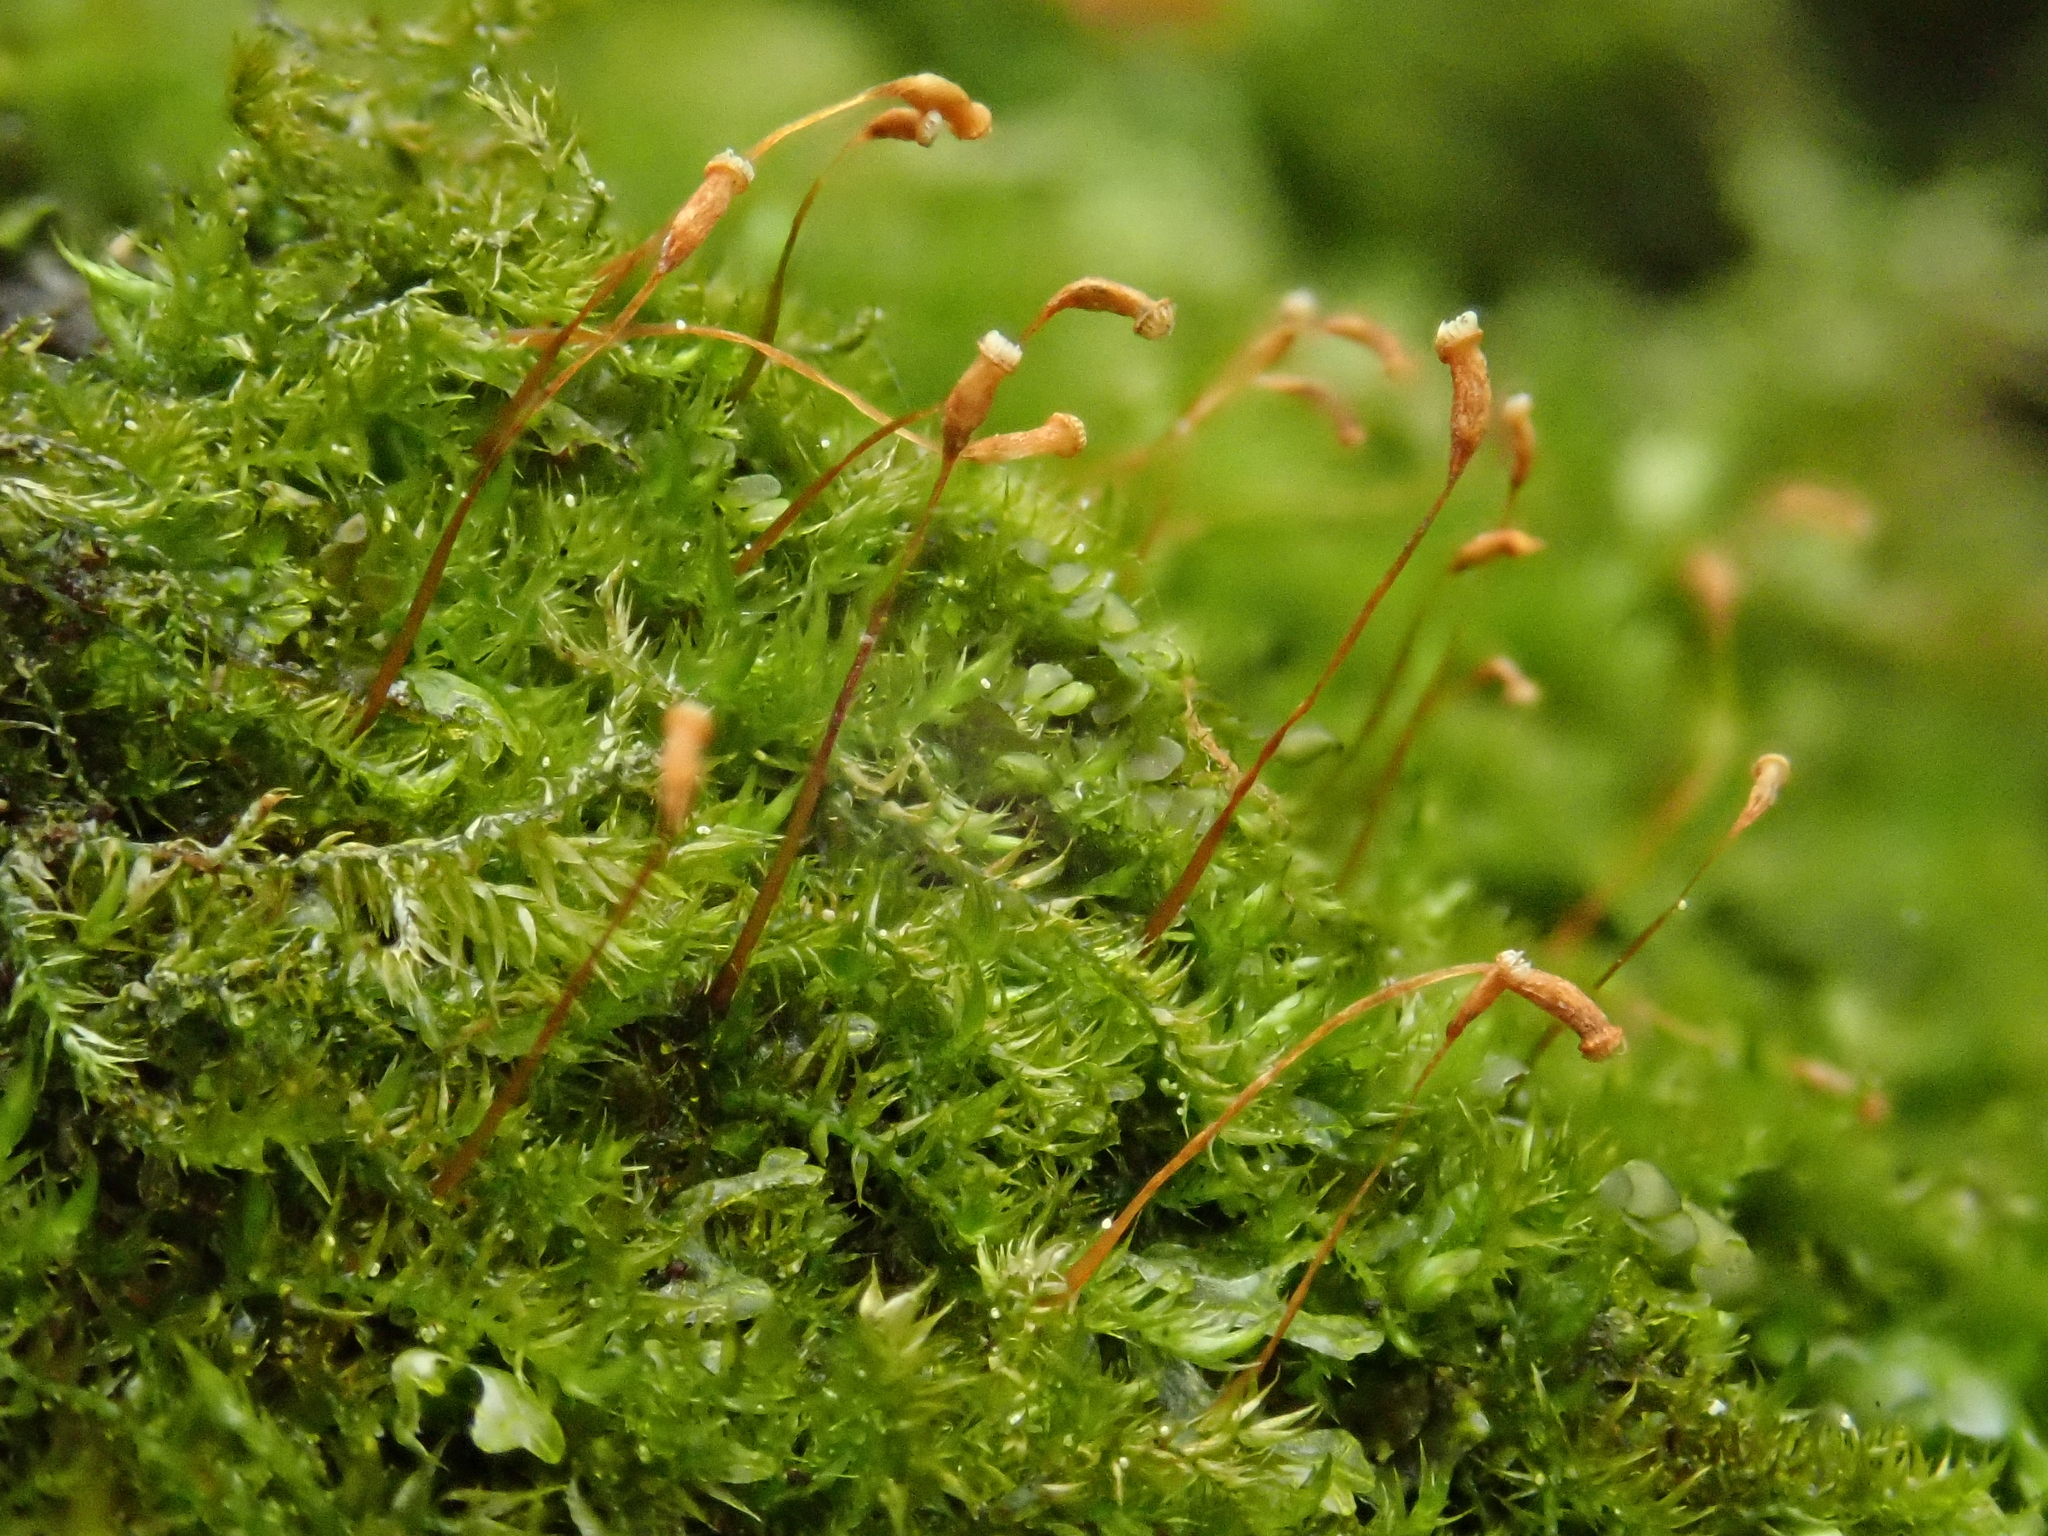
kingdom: Plantae
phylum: Bryophyta
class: Bryopsida
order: Hypnales
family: Pylaisiaceae
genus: Homomallium
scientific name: Homomallium incurvatum
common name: Incurved feather-moss
